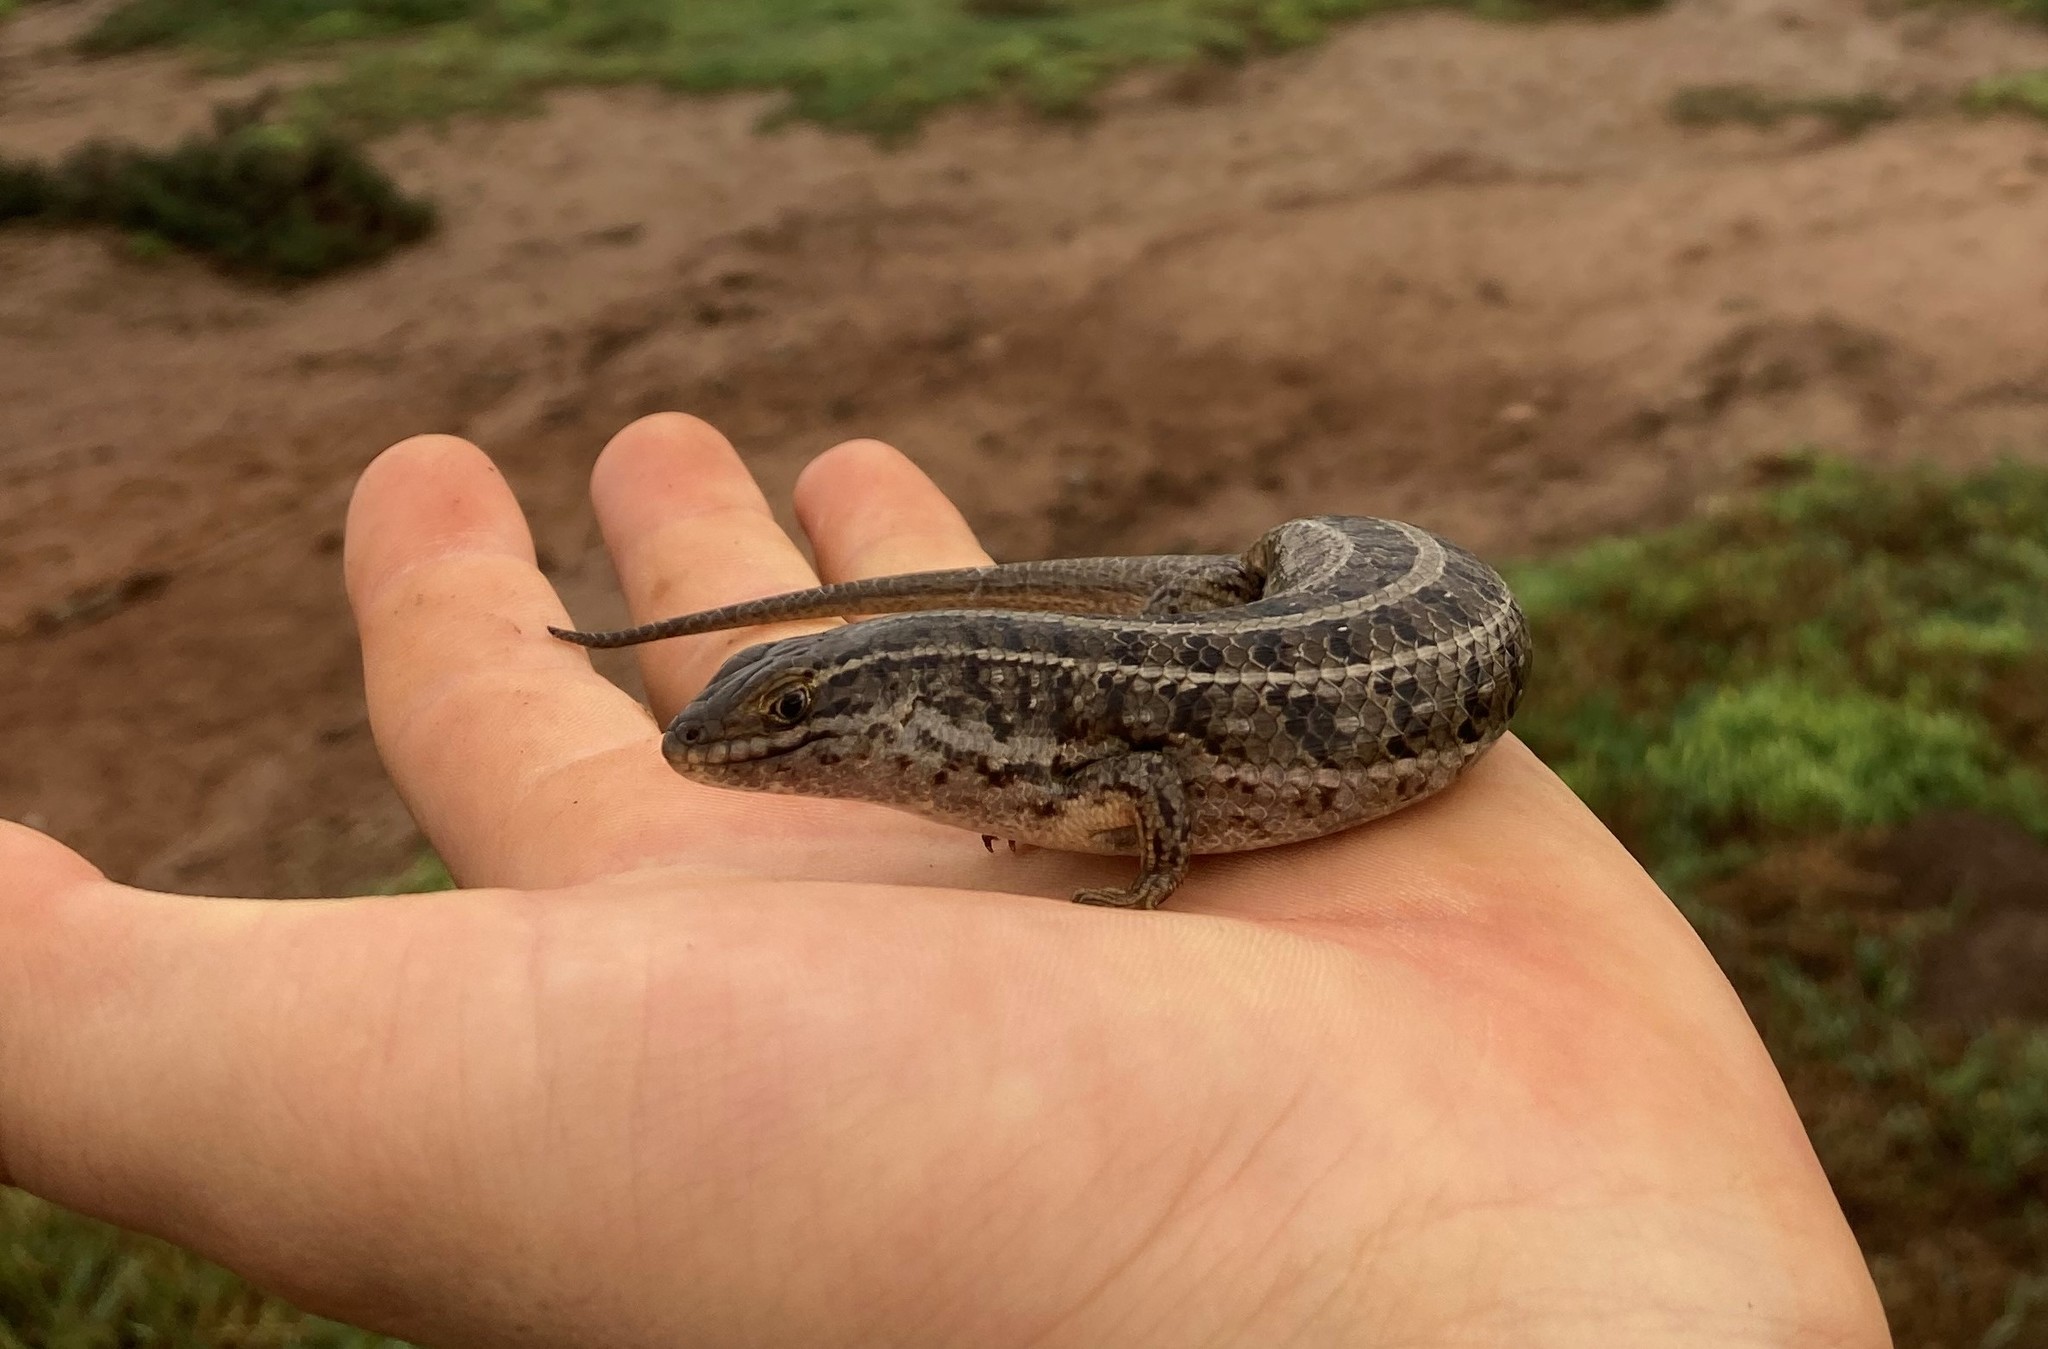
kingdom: Animalia
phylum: Chordata
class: Squamata
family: Scincidae
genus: Trachylepis
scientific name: Trachylepis capensis
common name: Cape skink
